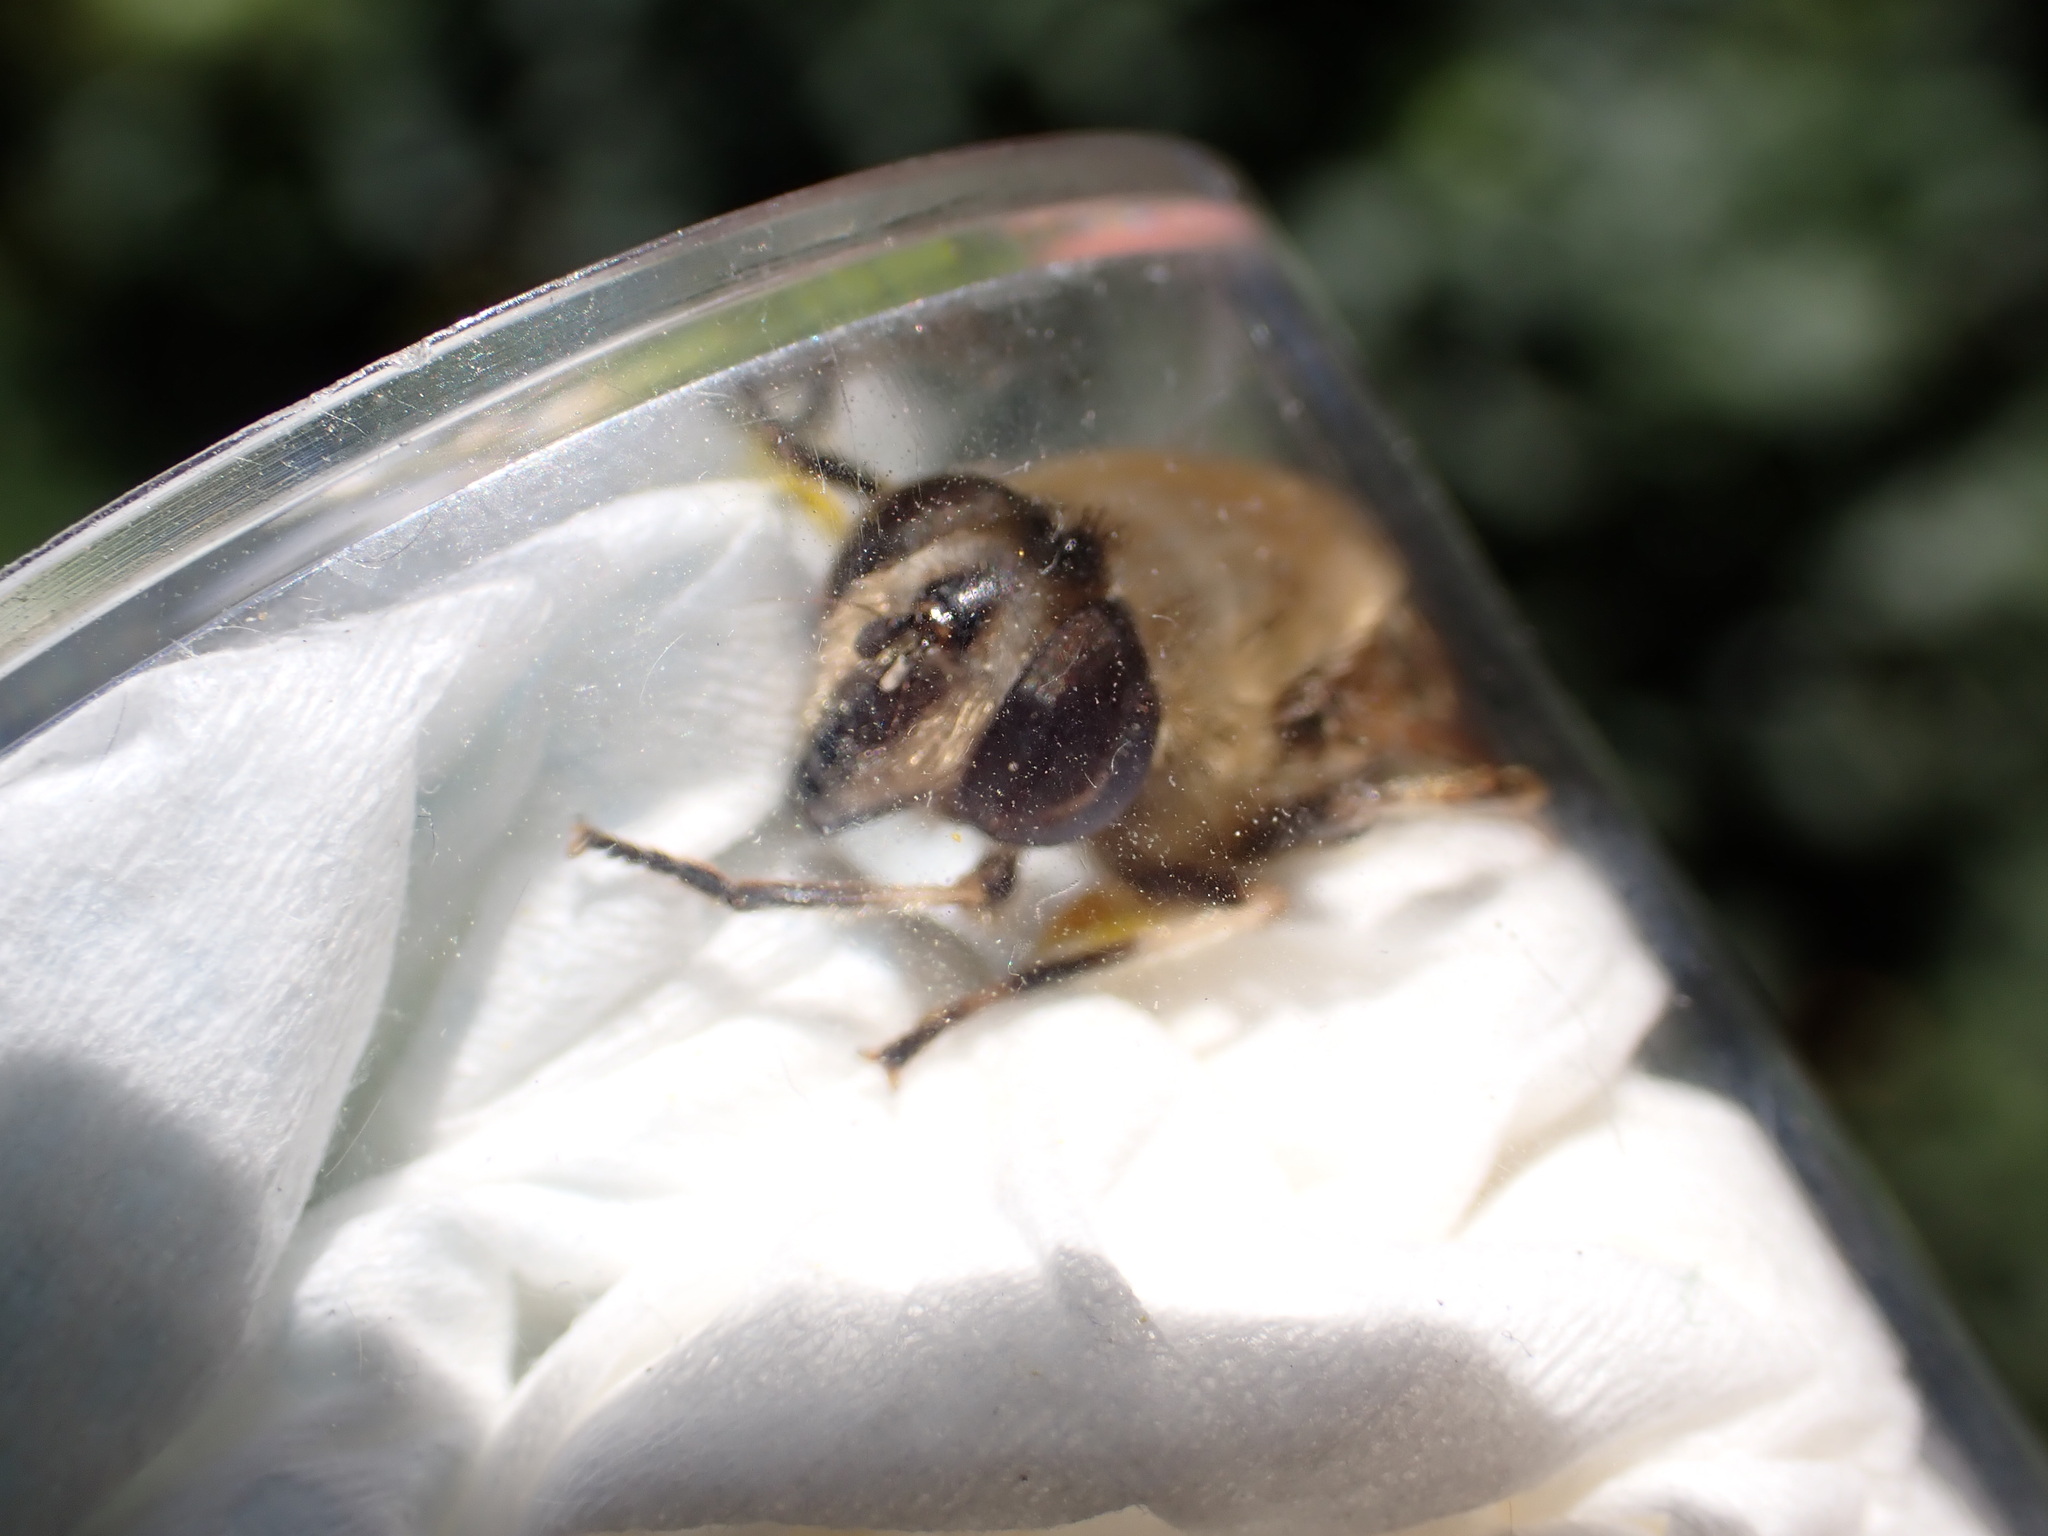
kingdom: Animalia
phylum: Arthropoda
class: Insecta
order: Diptera
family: Syrphidae
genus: Eristalis
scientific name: Eristalis tenax
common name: Drone fly
